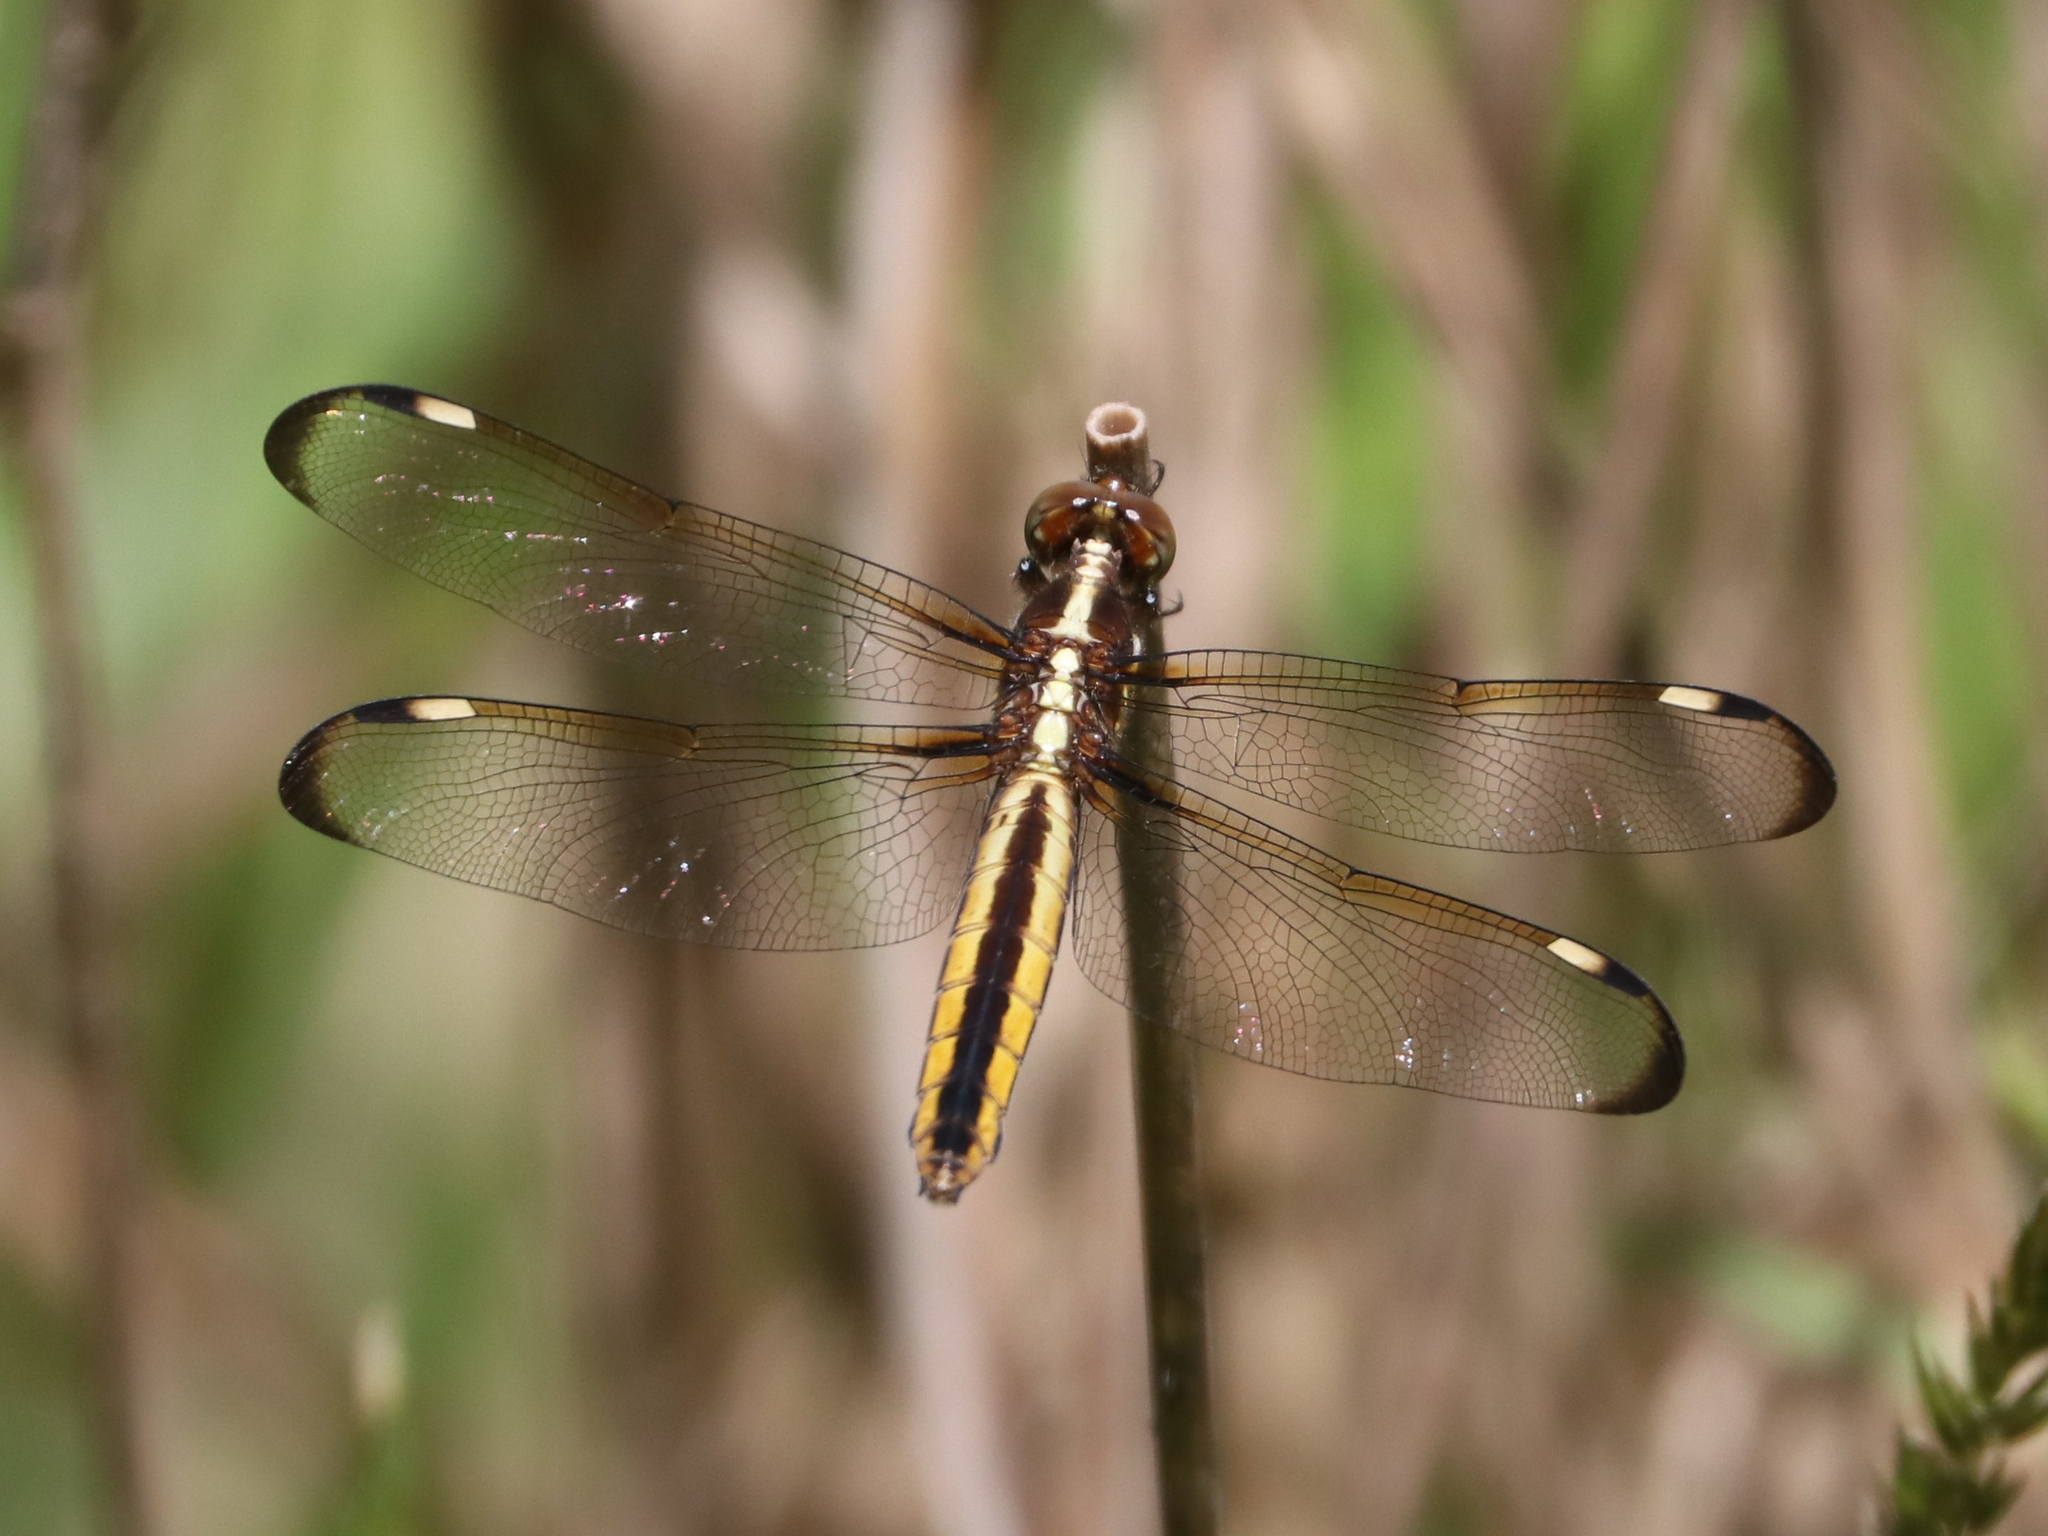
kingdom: Animalia
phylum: Arthropoda
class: Insecta
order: Odonata
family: Libellulidae
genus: Libellula
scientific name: Libellula cyanea
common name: Spangled skimmer
